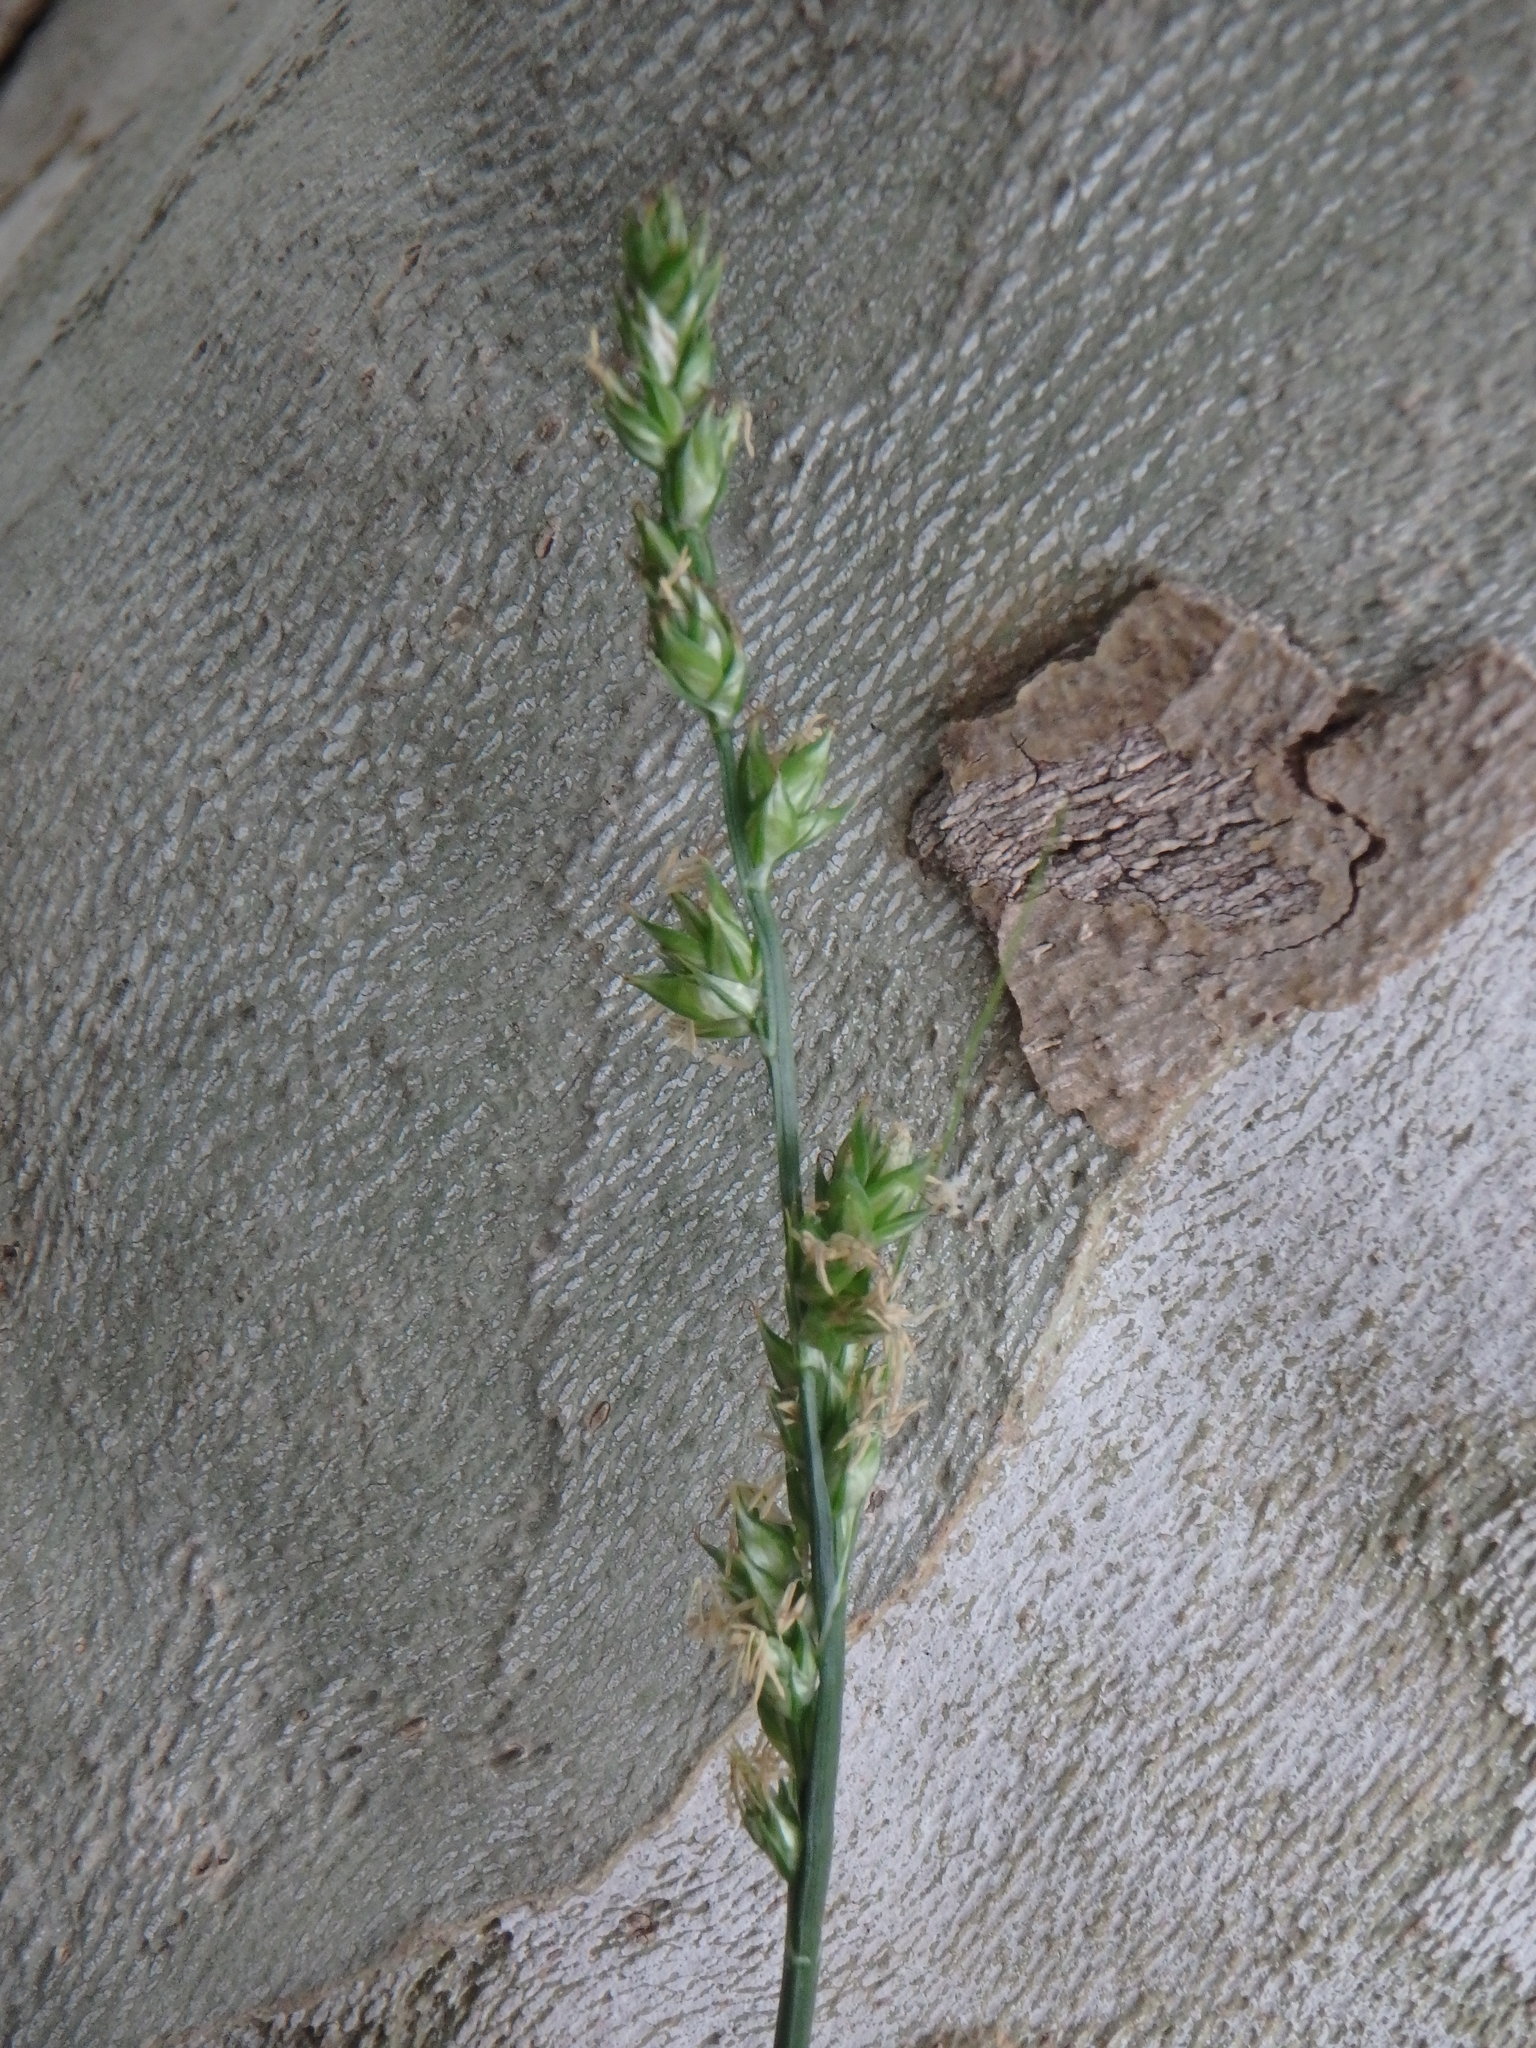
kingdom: Plantae
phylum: Tracheophyta
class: Liliopsida
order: Poales
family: Cyperaceae
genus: Carex
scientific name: Carex divulsa
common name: Grassland sedge
